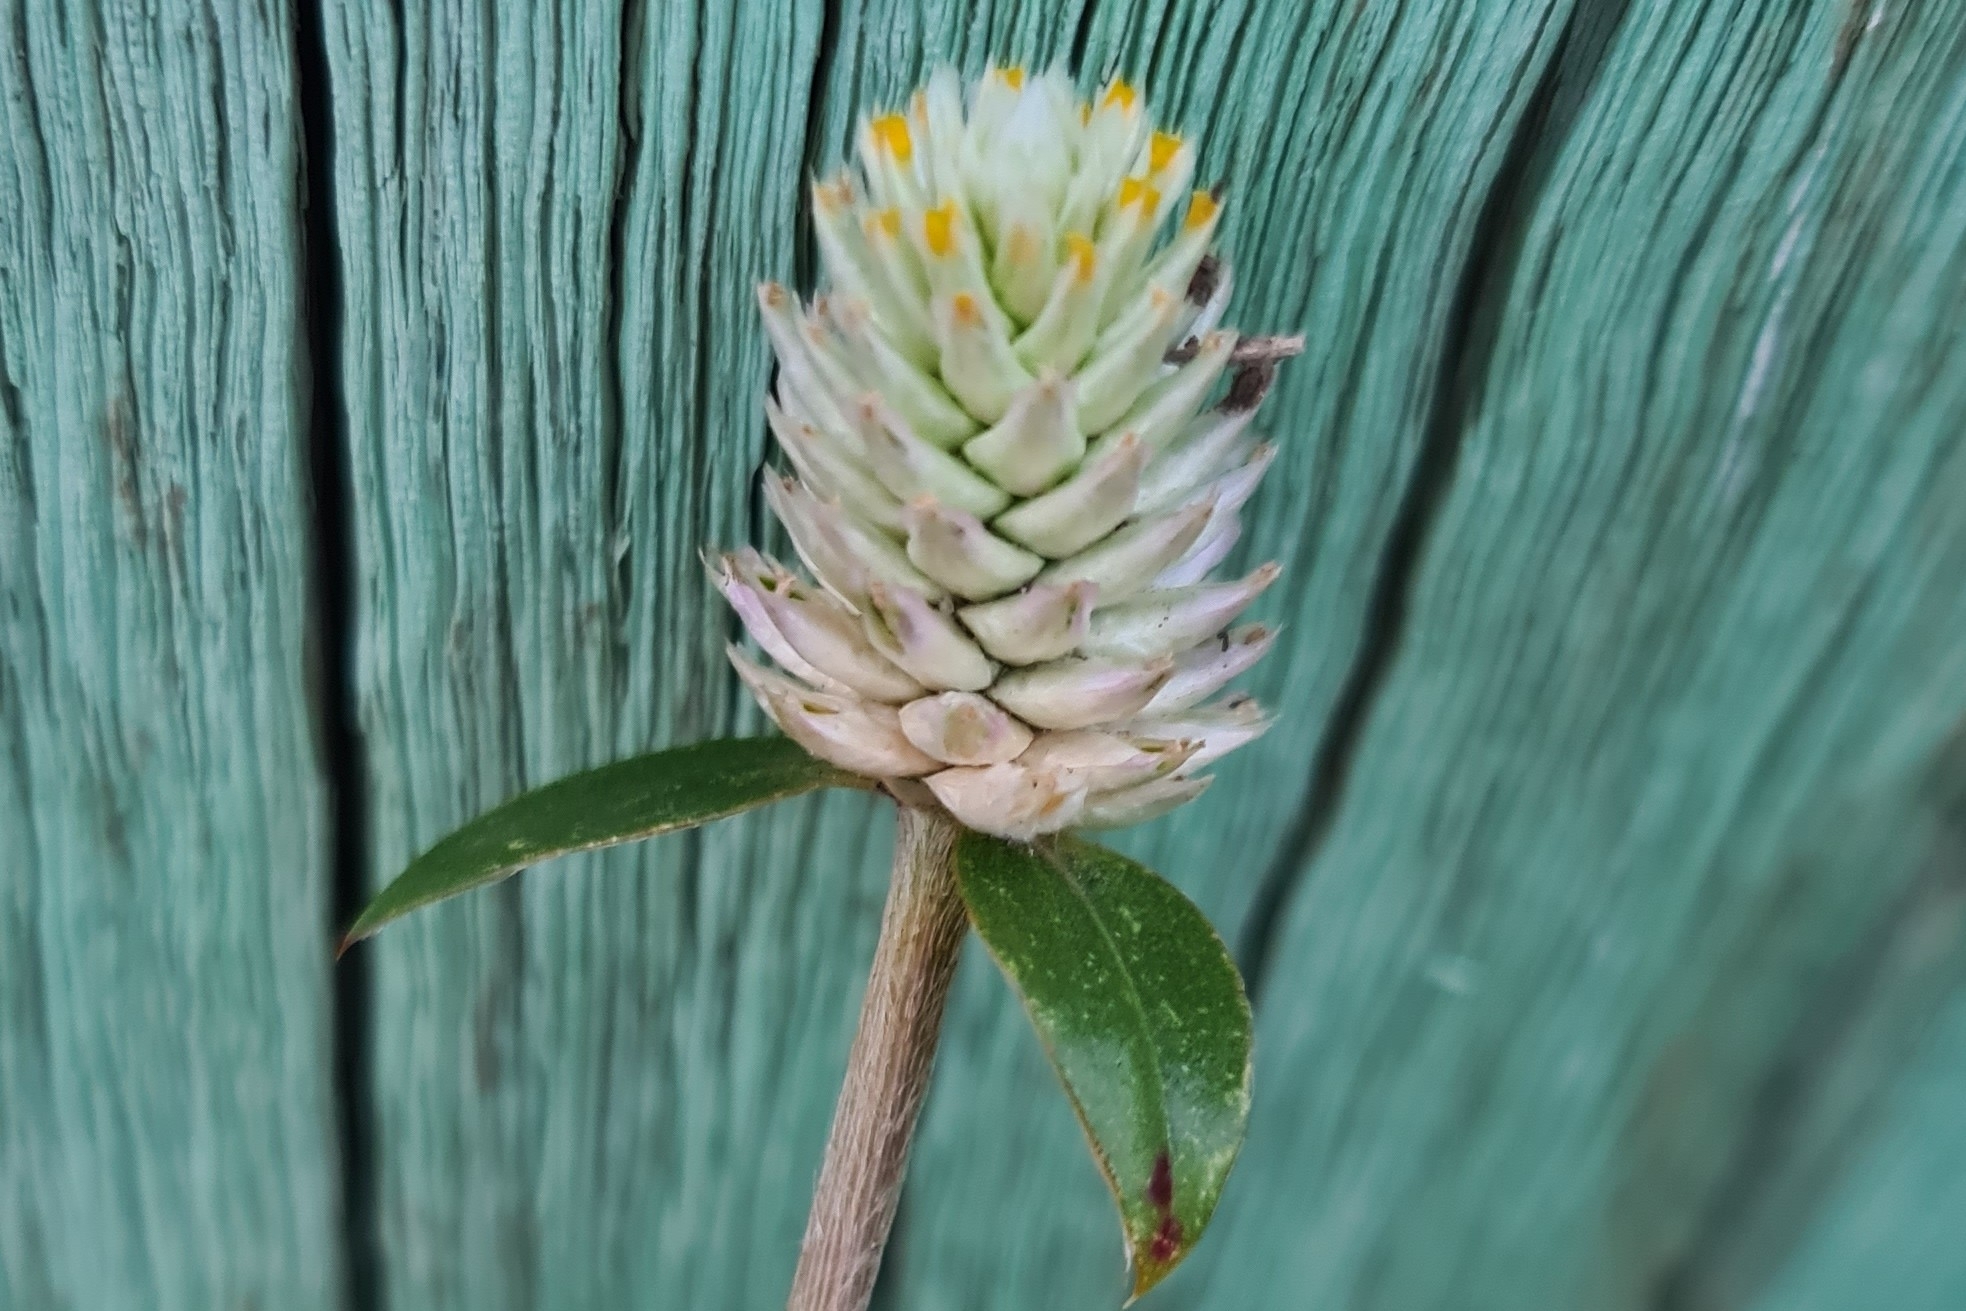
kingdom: Plantae
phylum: Tracheophyta
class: Magnoliopsida
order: Caryophyllales
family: Amaranthaceae
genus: Gomphrena
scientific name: Gomphrena celosioides
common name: Gomphrena-weed
